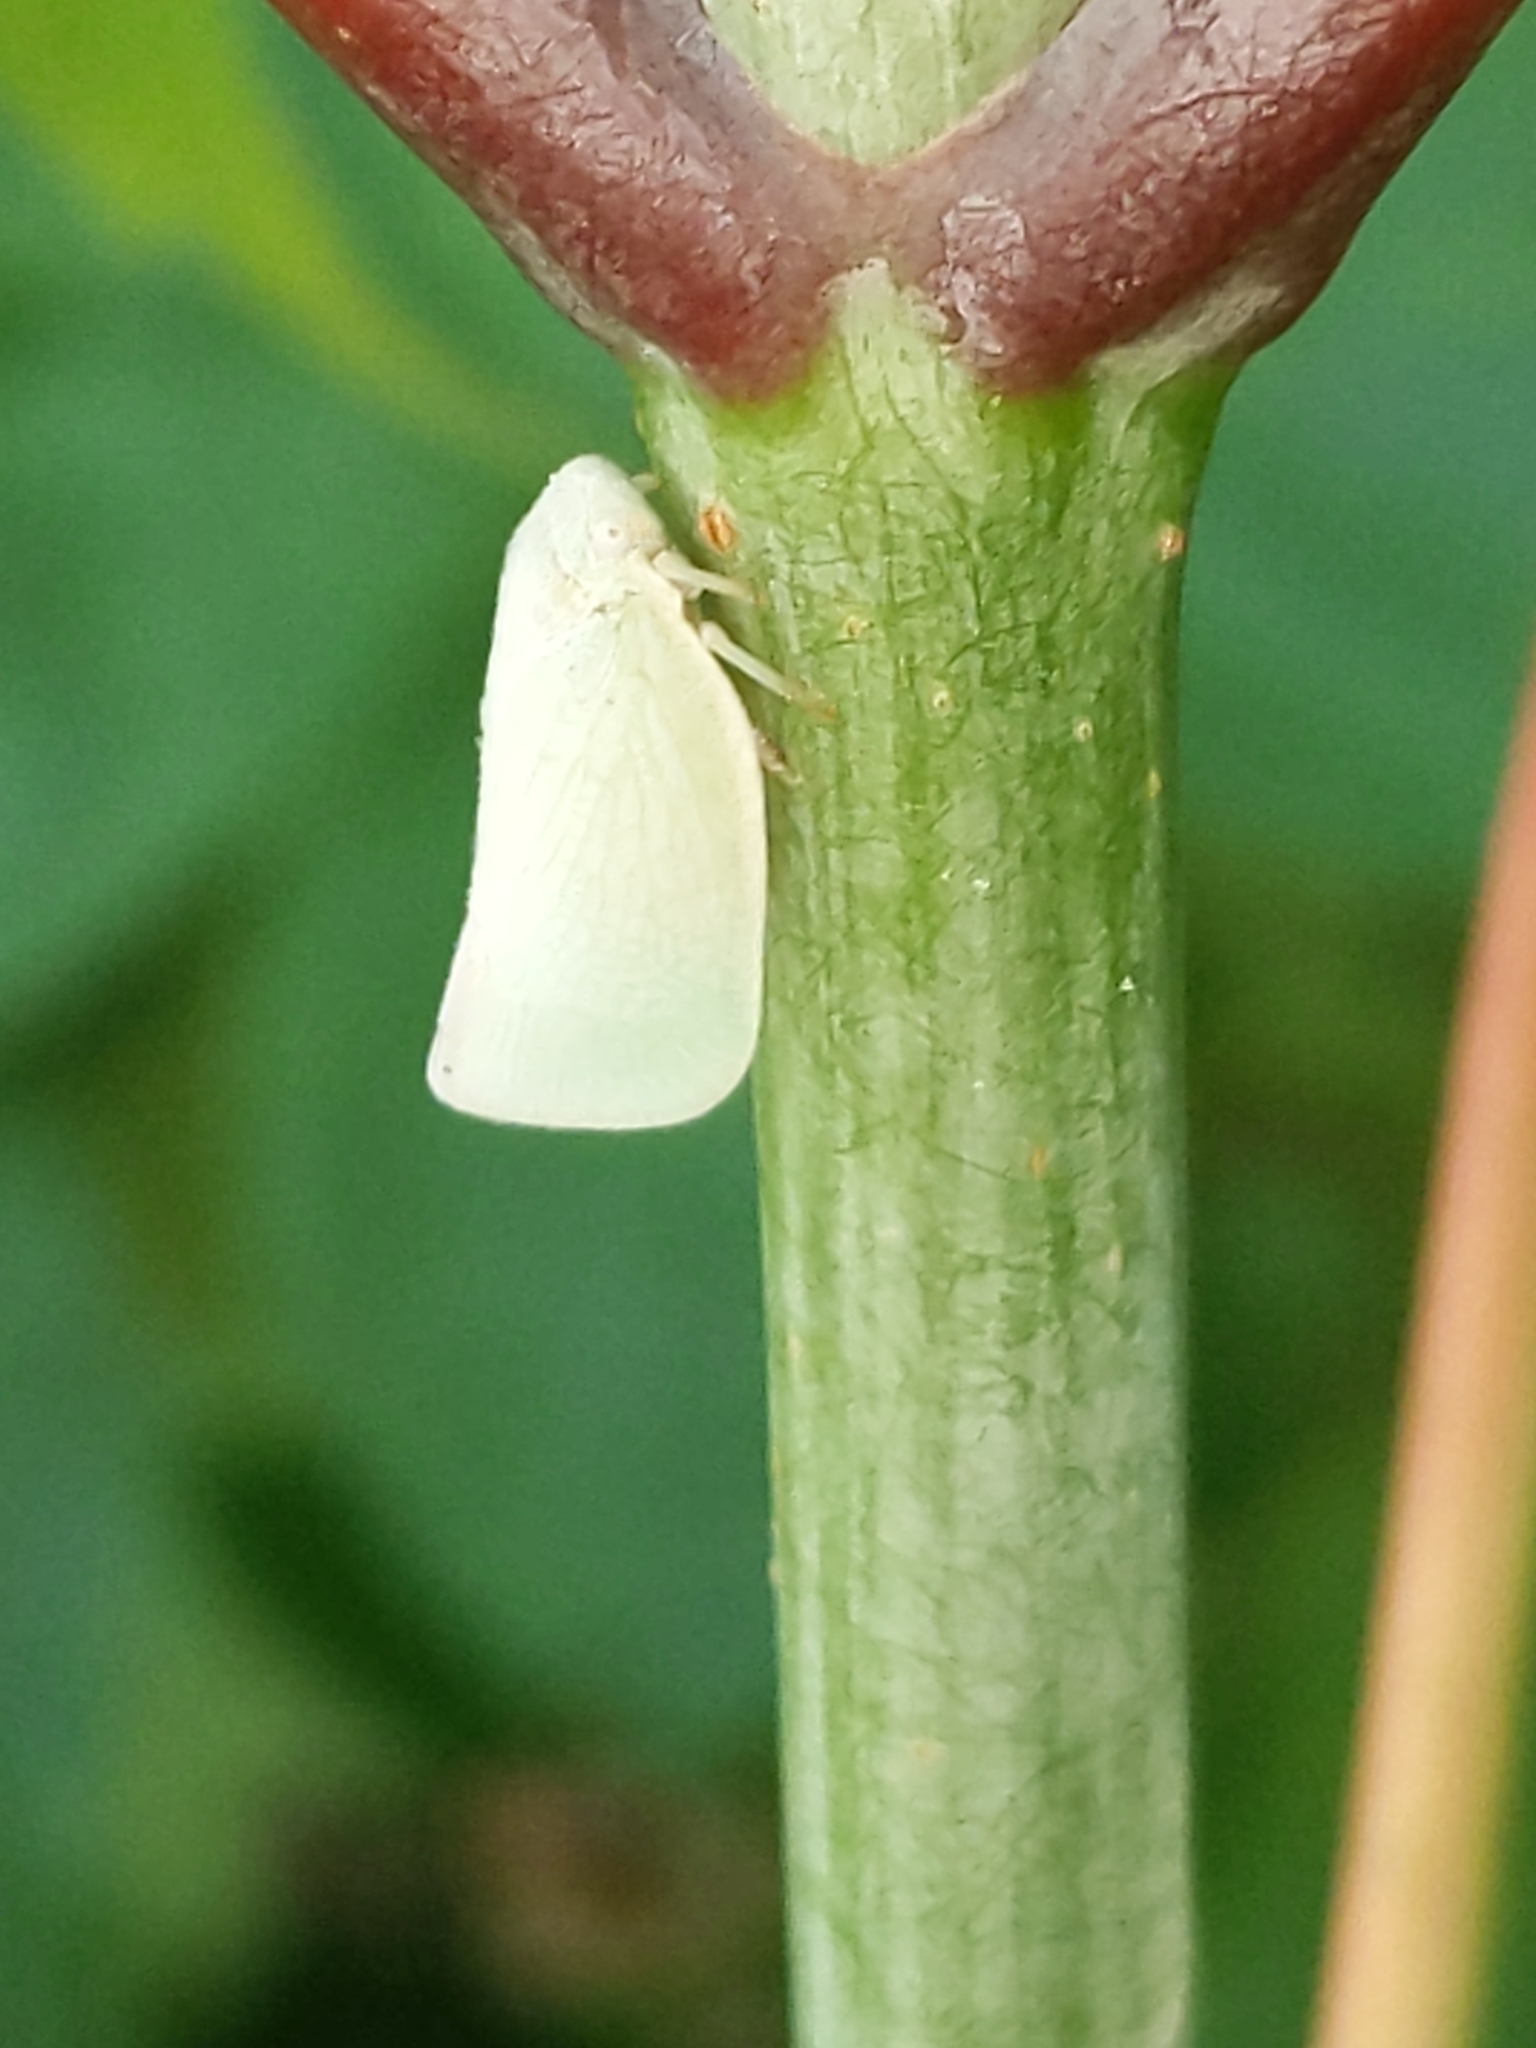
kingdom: Animalia
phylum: Arthropoda
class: Insecta
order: Hemiptera
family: Flatidae
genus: Flatormenis
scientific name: Flatormenis proxima
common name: Northern flatid planthopper
